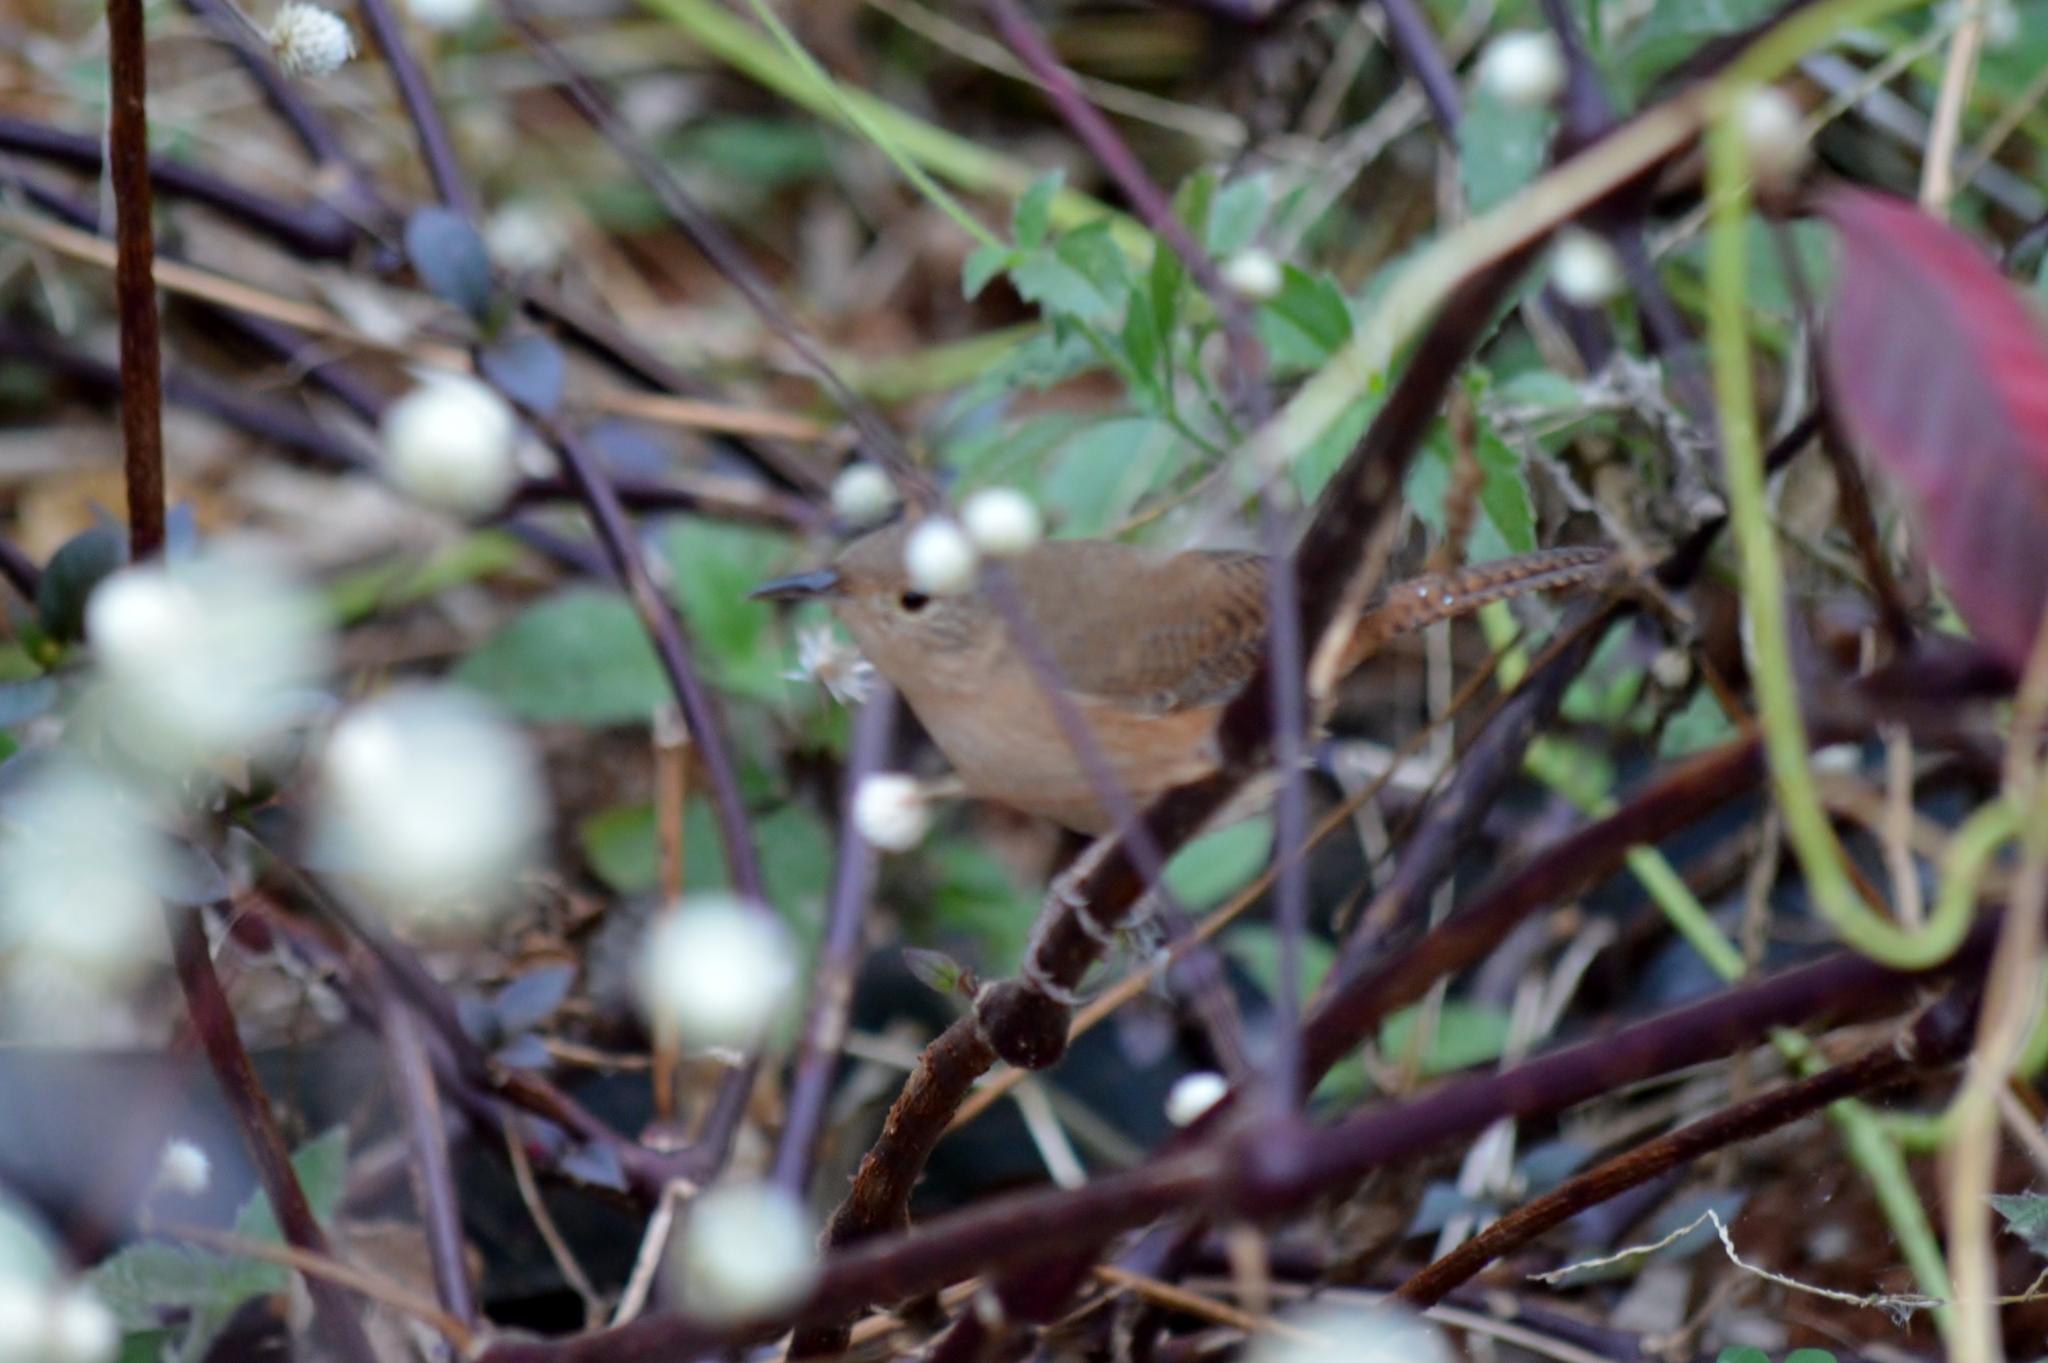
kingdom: Animalia
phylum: Chordata
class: Aves
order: Passeriformes
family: Troglodytidae
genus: Troglodytes
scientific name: Troglodytes aedon
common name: House wren
